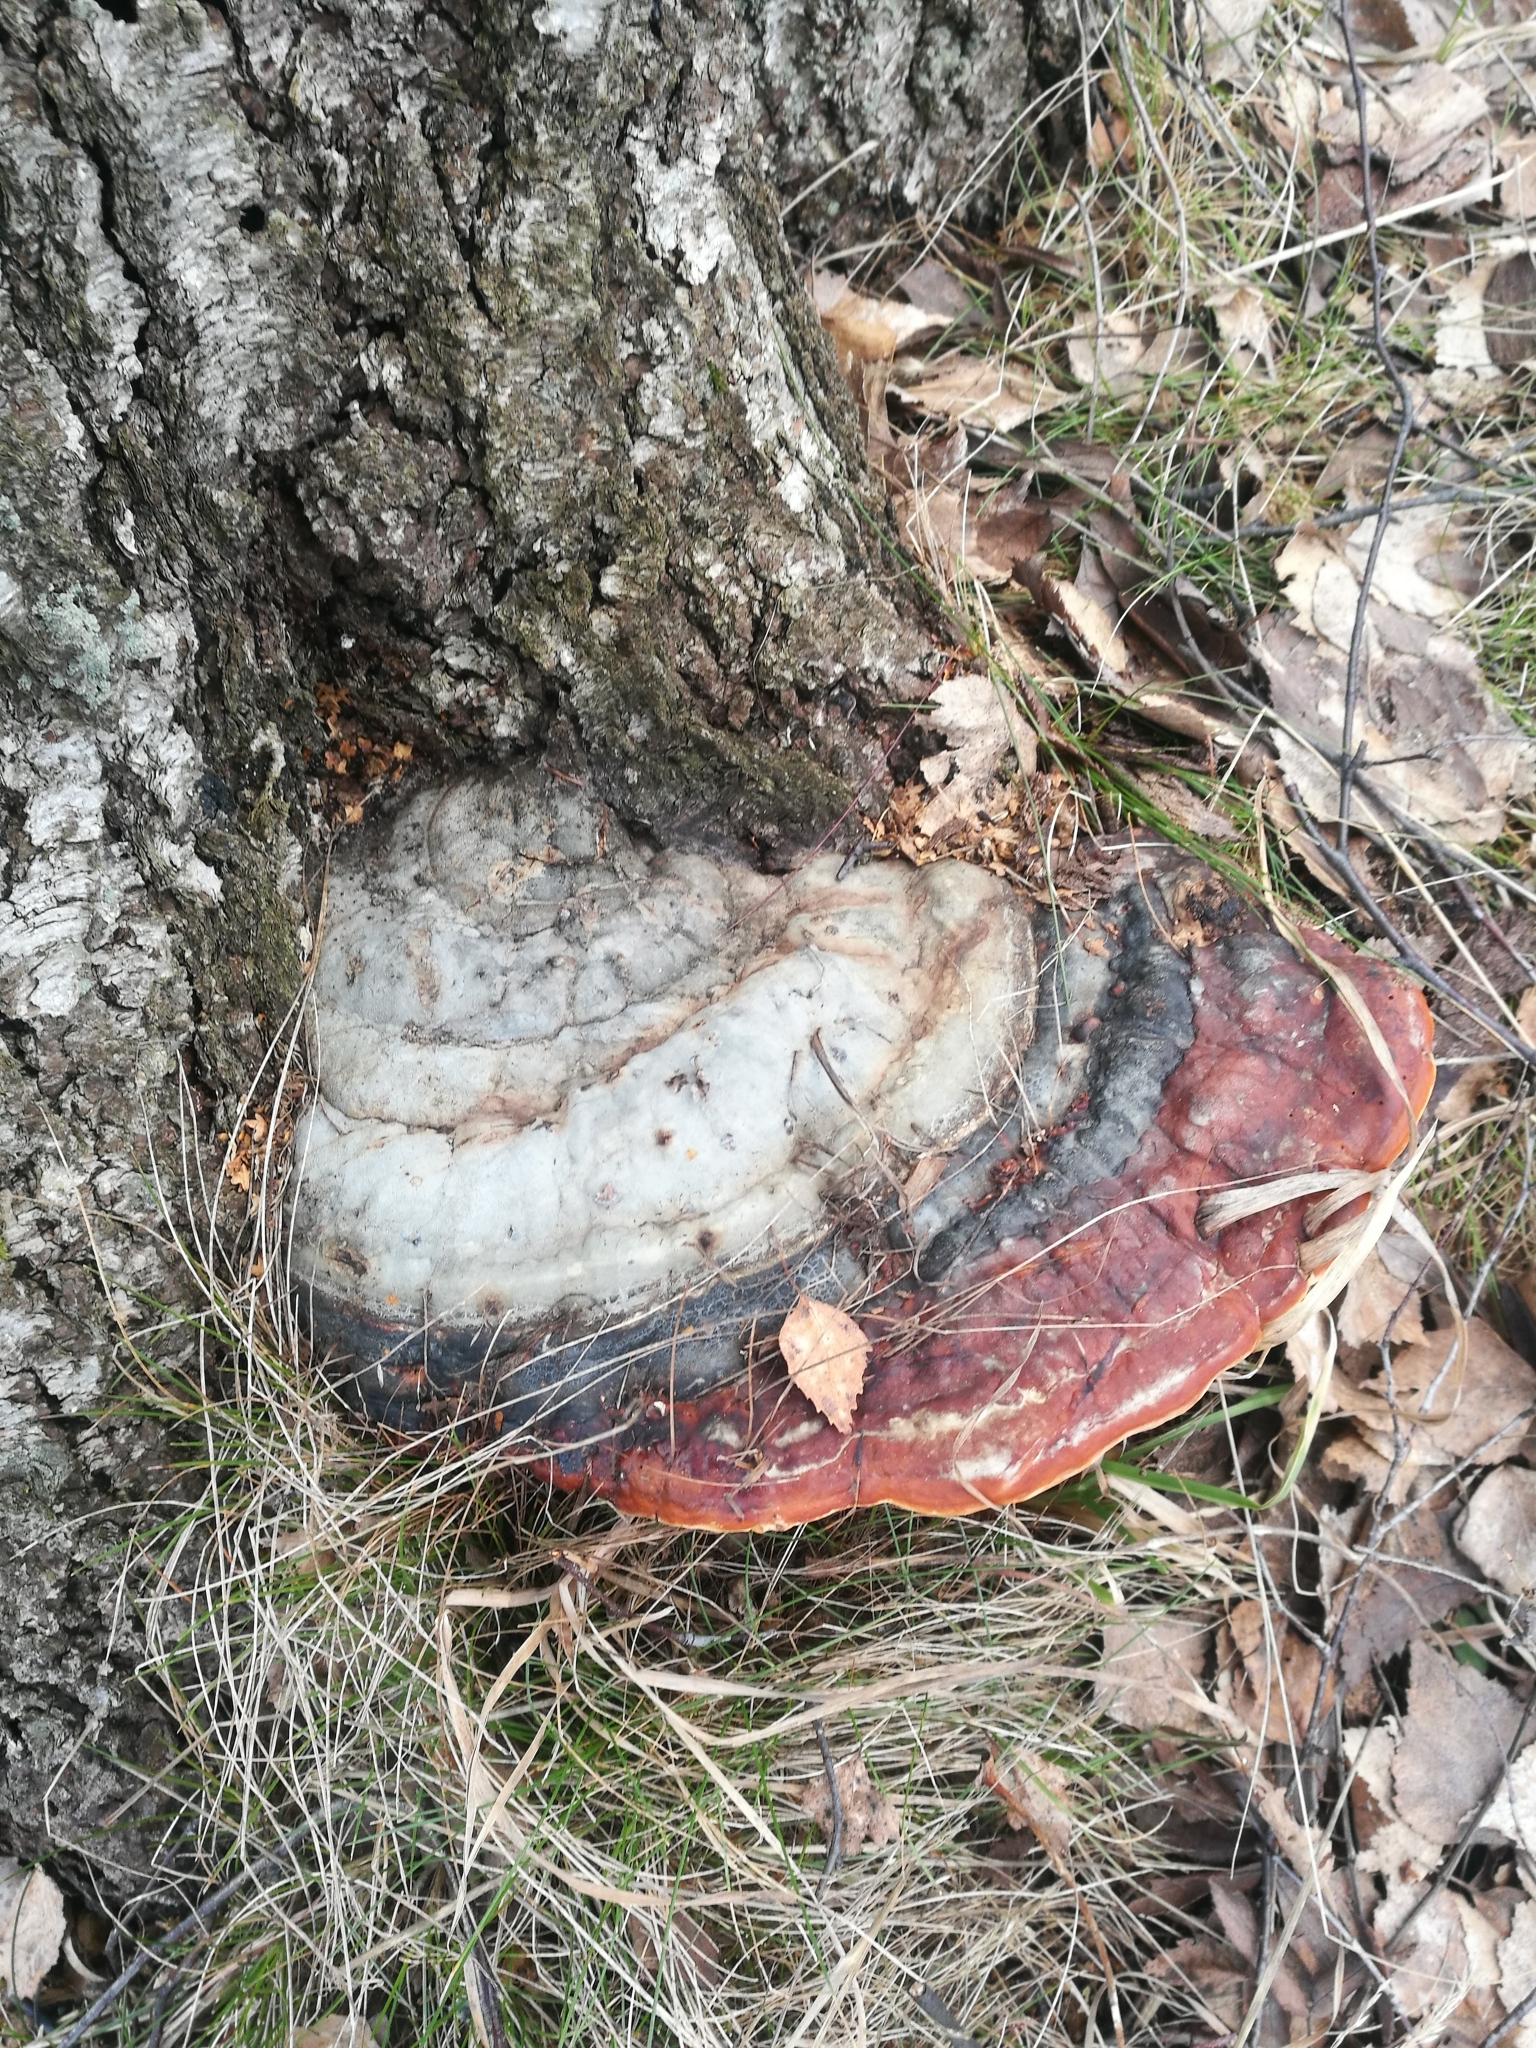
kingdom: Fungi
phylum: Basidiomycota
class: Agaricomycetes
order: Polyporales
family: Fomitopsidaceae
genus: Fomitopsis
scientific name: Fomitopsis pinicola
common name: Red-belted bracket
